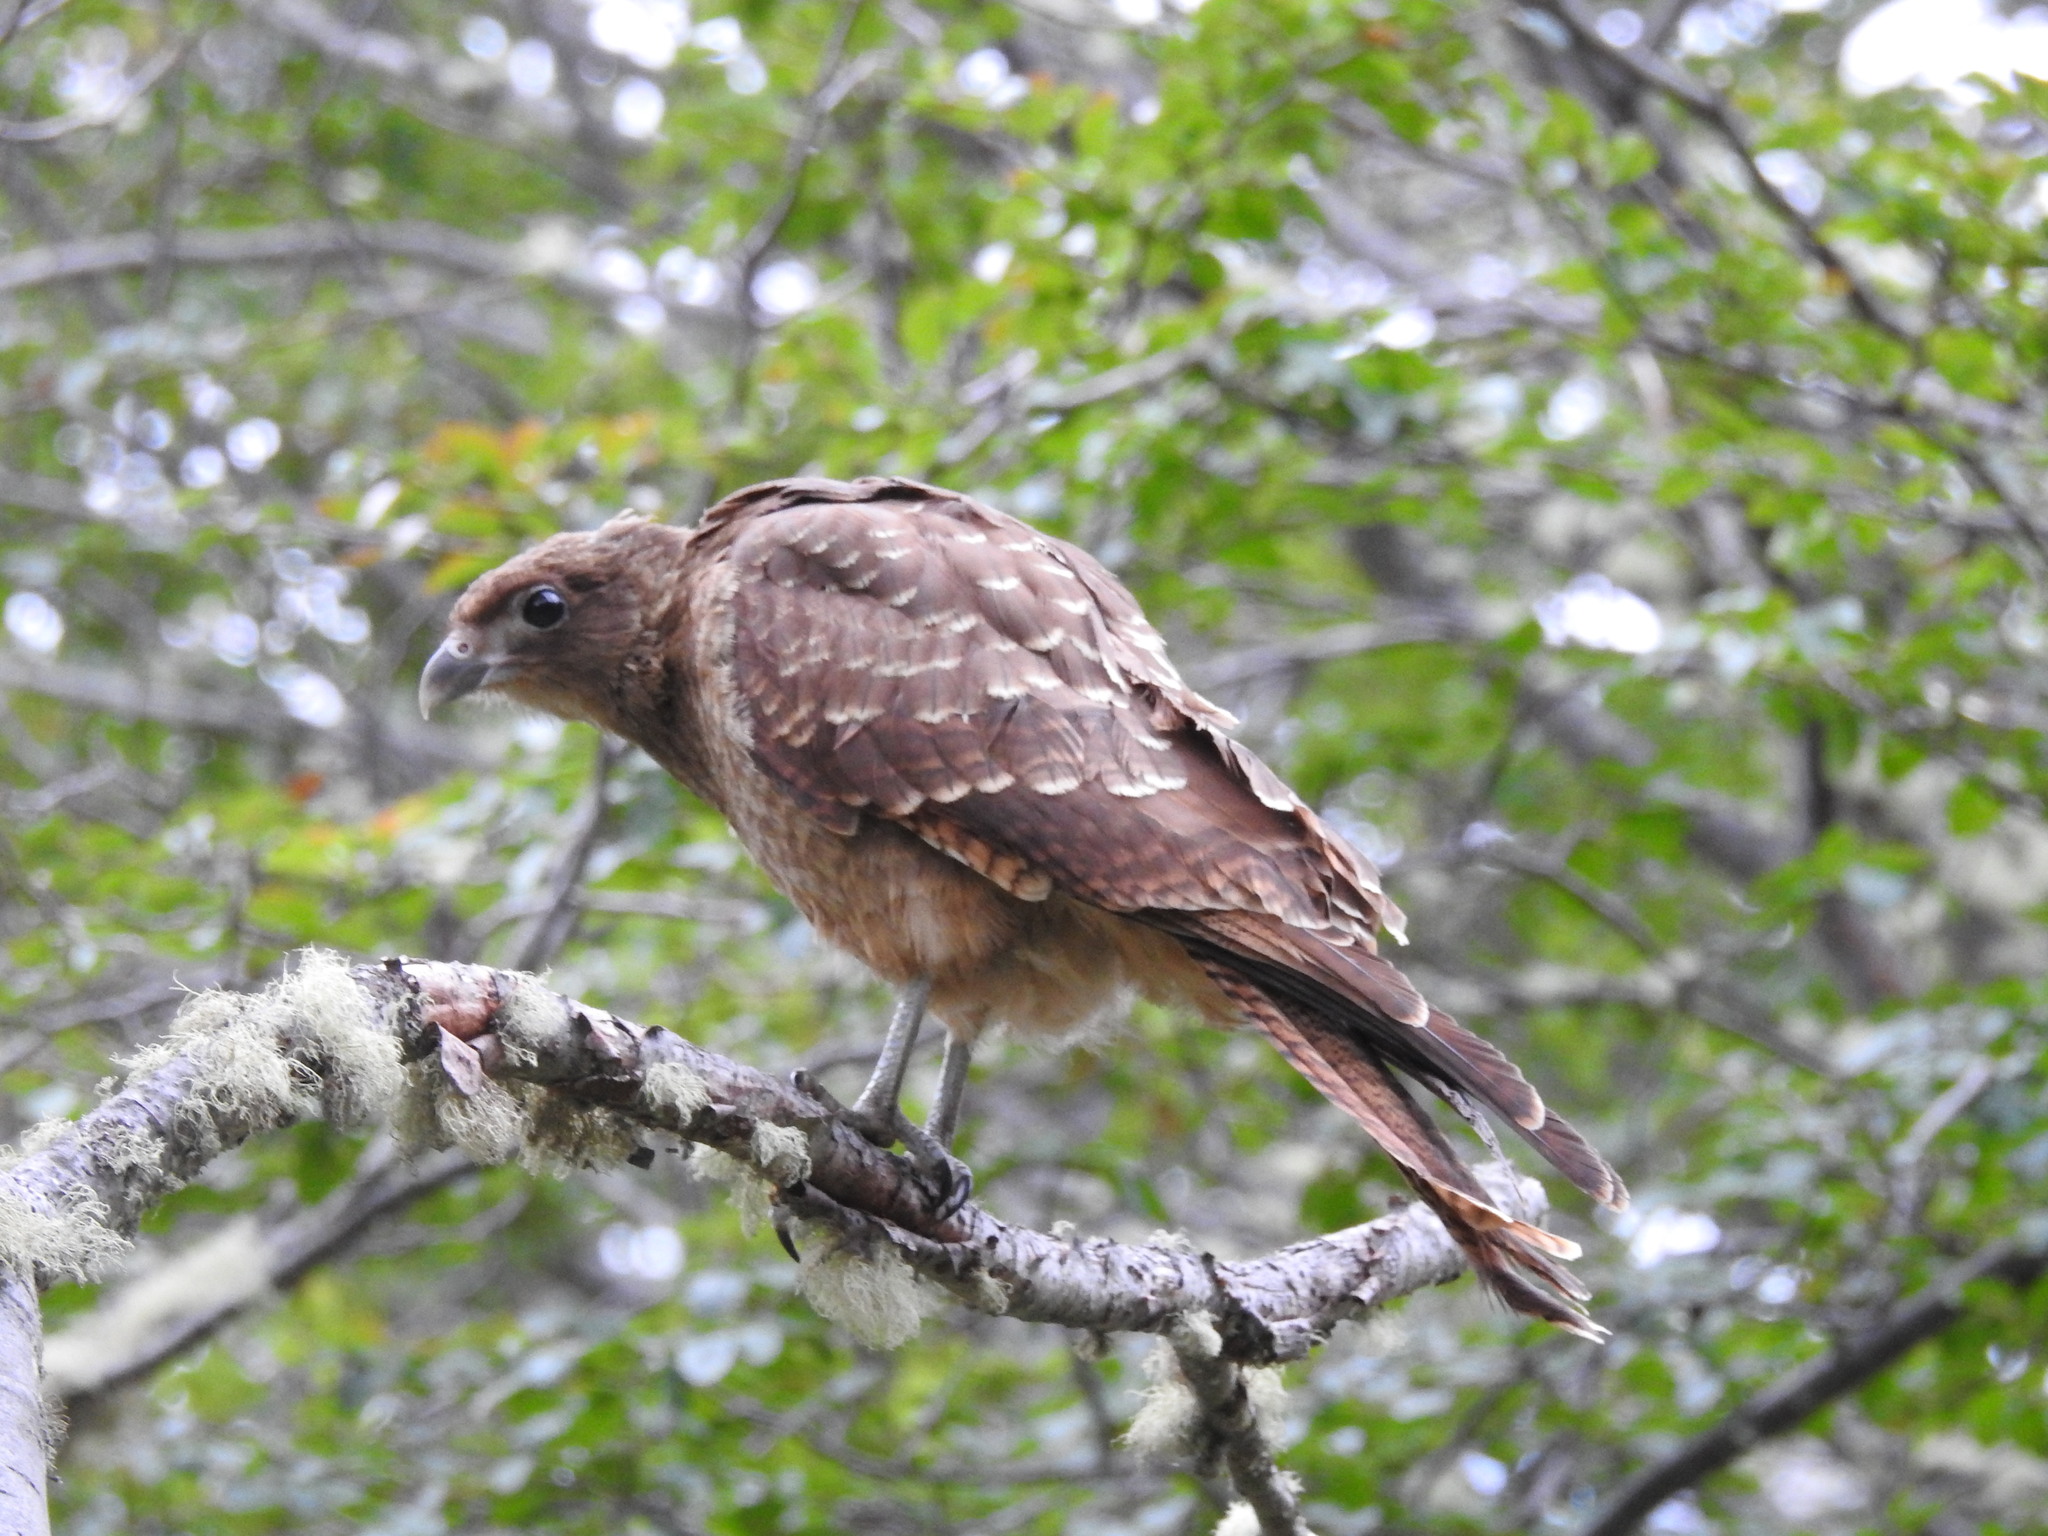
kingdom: Animalia
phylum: Chordata
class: Aves
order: Falconiformes
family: Falconidae
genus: Daptrius
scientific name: Daptrius
